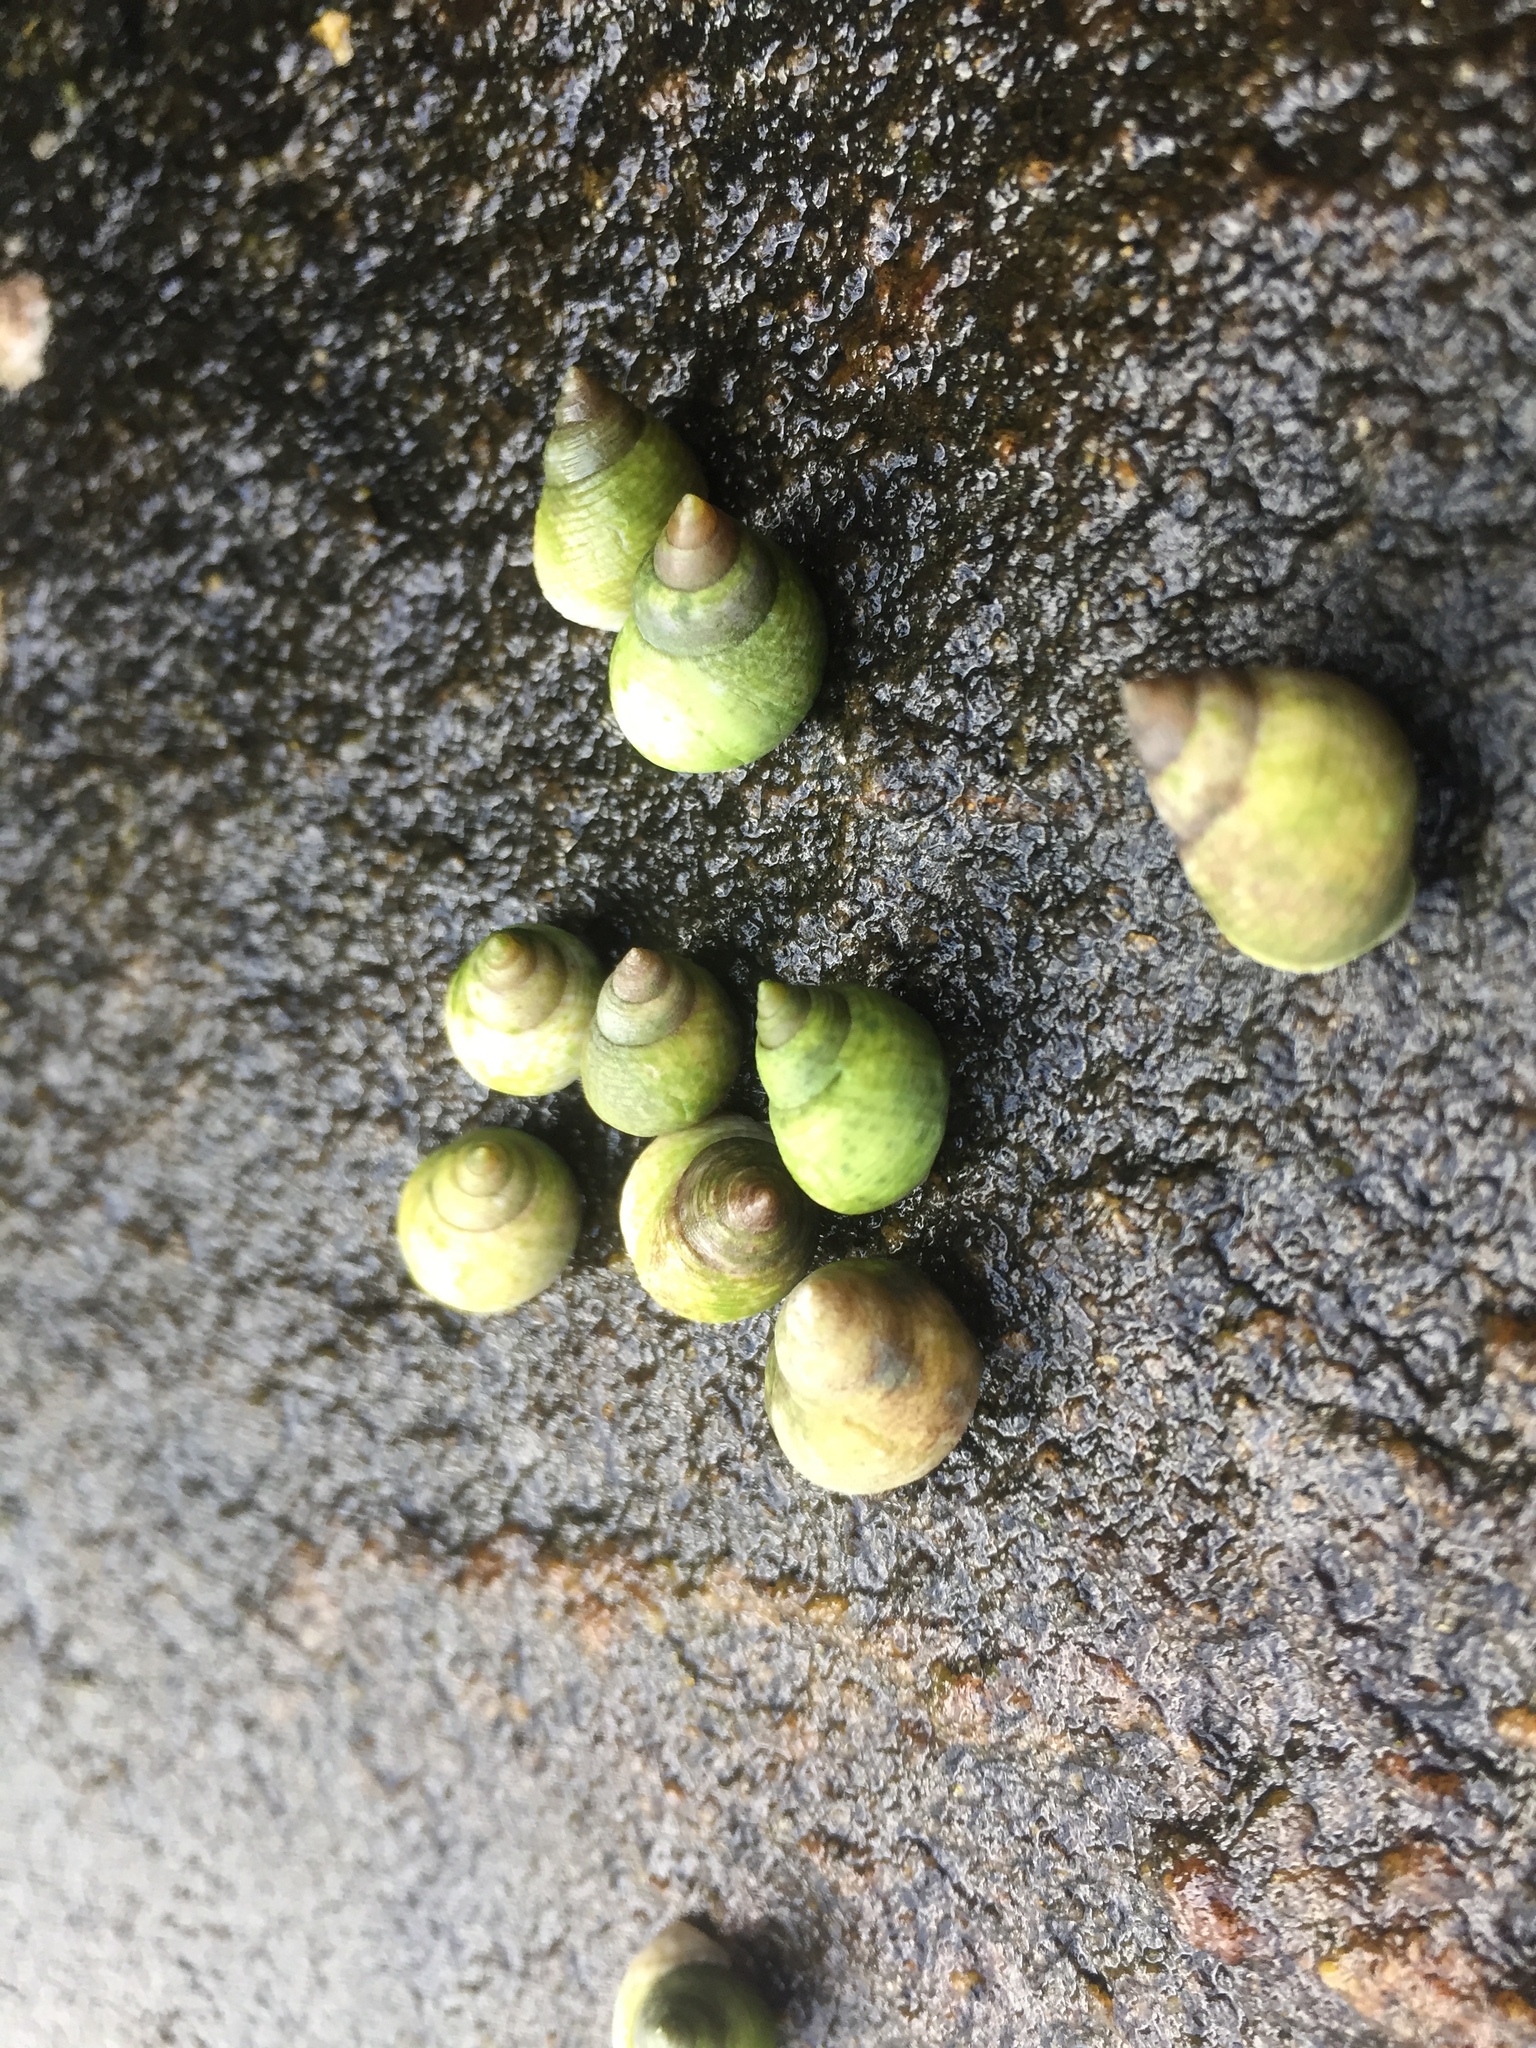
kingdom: Animalia
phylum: Mollusca
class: Gastropoda
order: Littorinimorpha
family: Littorinidae
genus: Littoraria
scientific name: Littoraria flava
